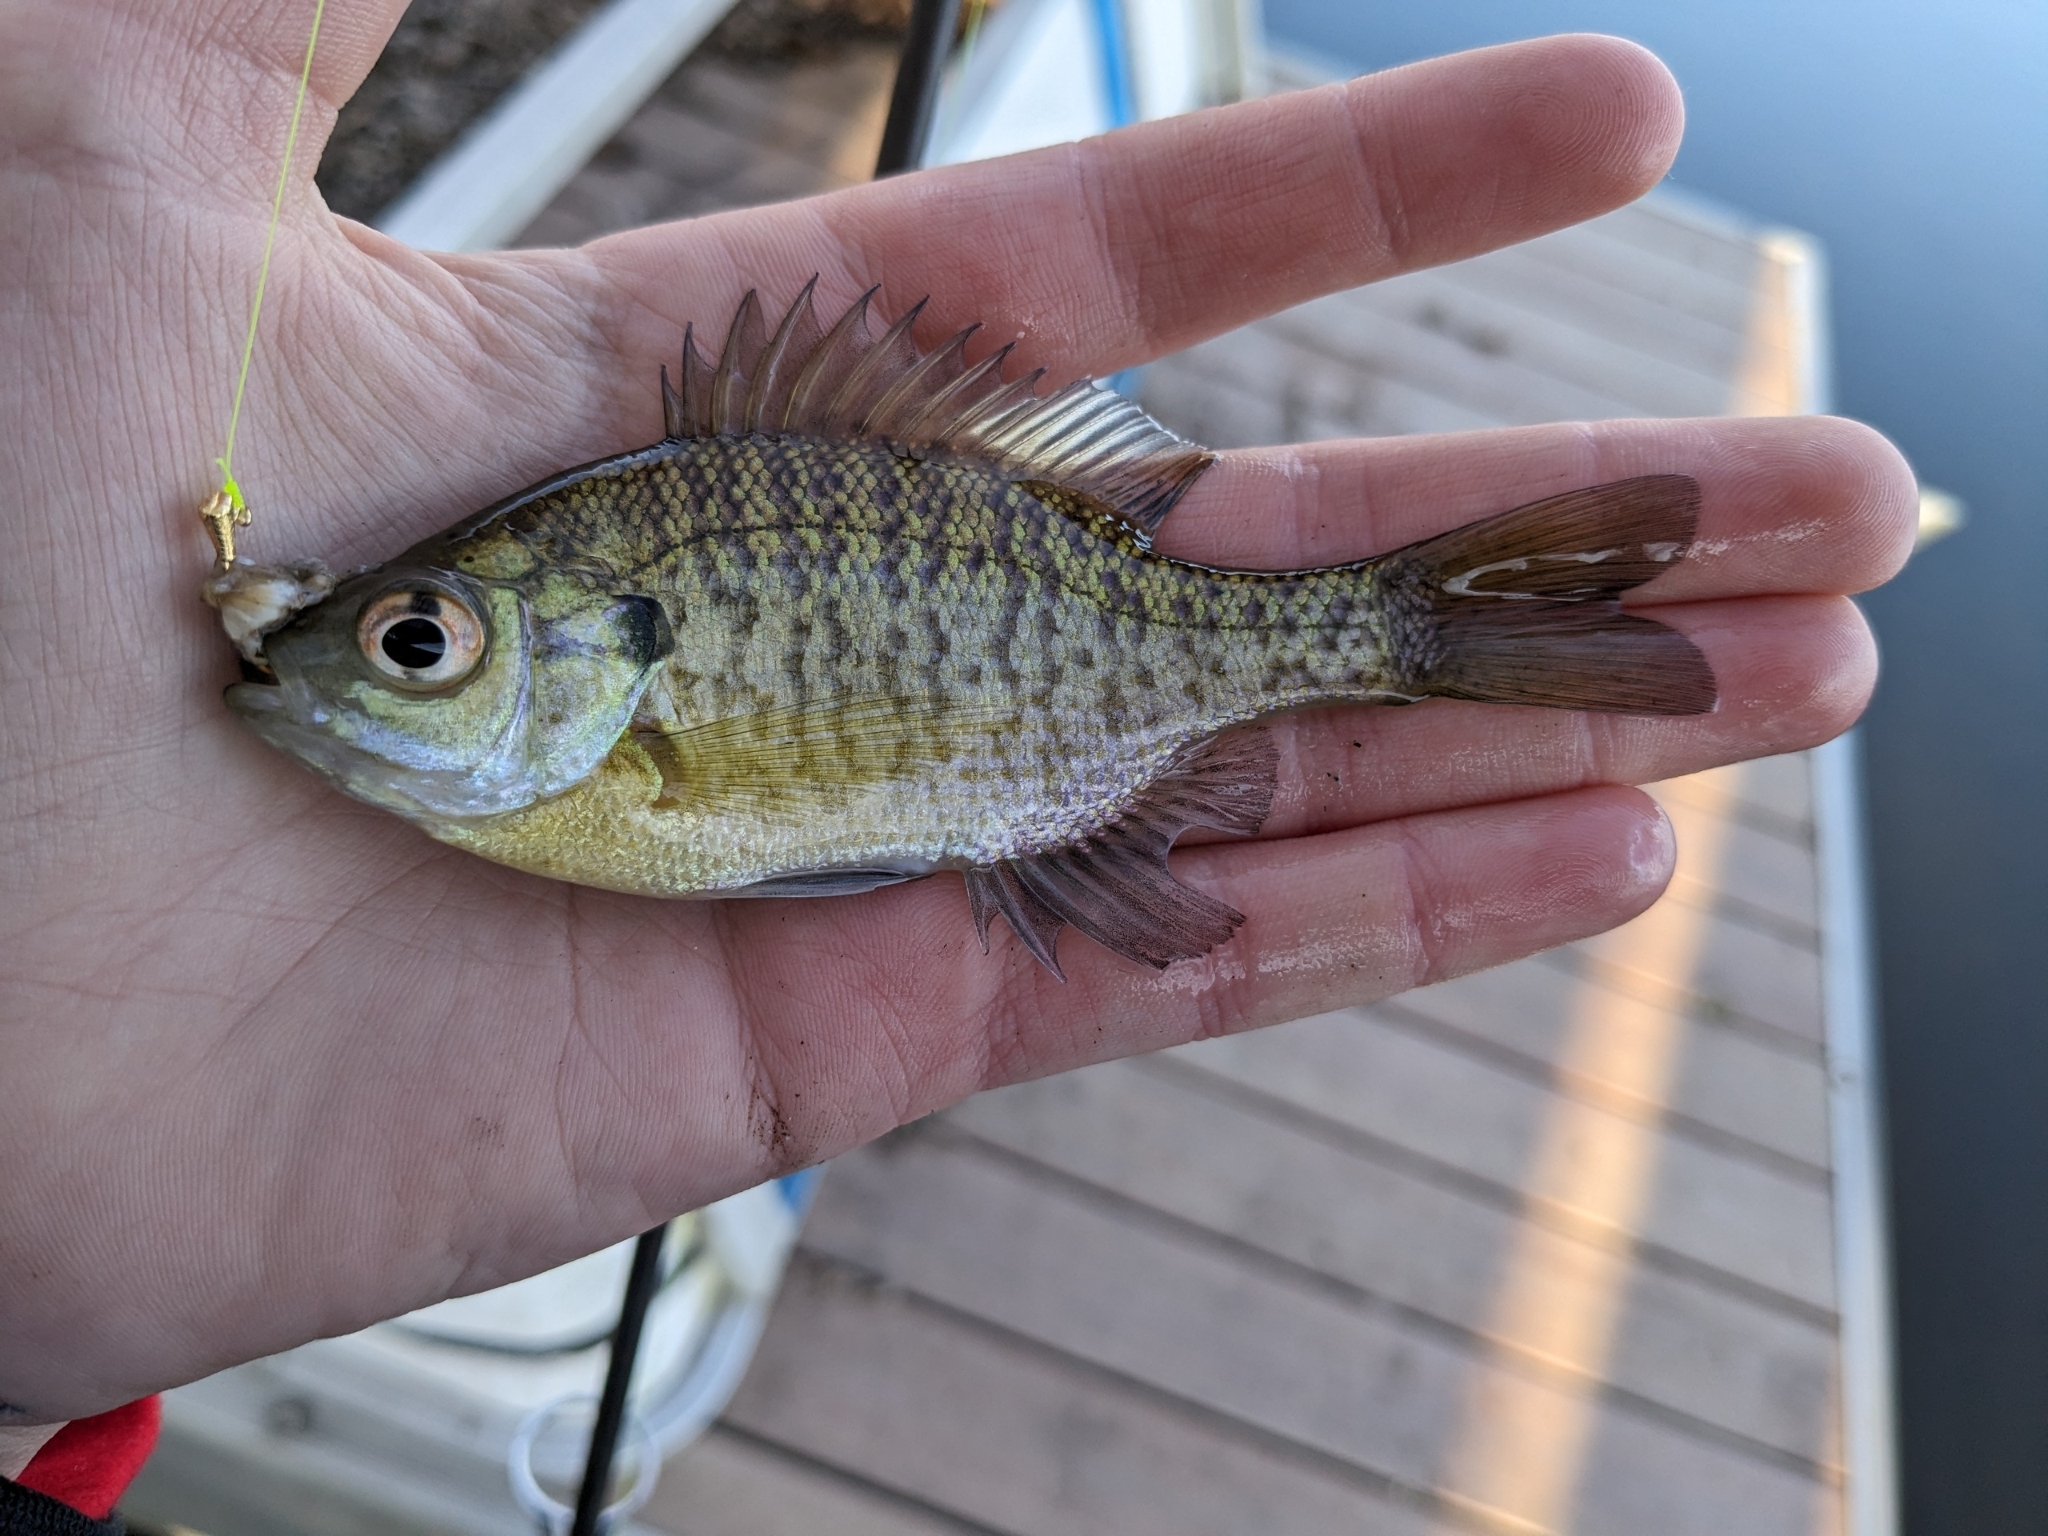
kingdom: Animalia
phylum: Chordata
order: Perciformes
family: Centrarchidae
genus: Lepomis
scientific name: Lepomis macrochirus
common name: Bluegill
